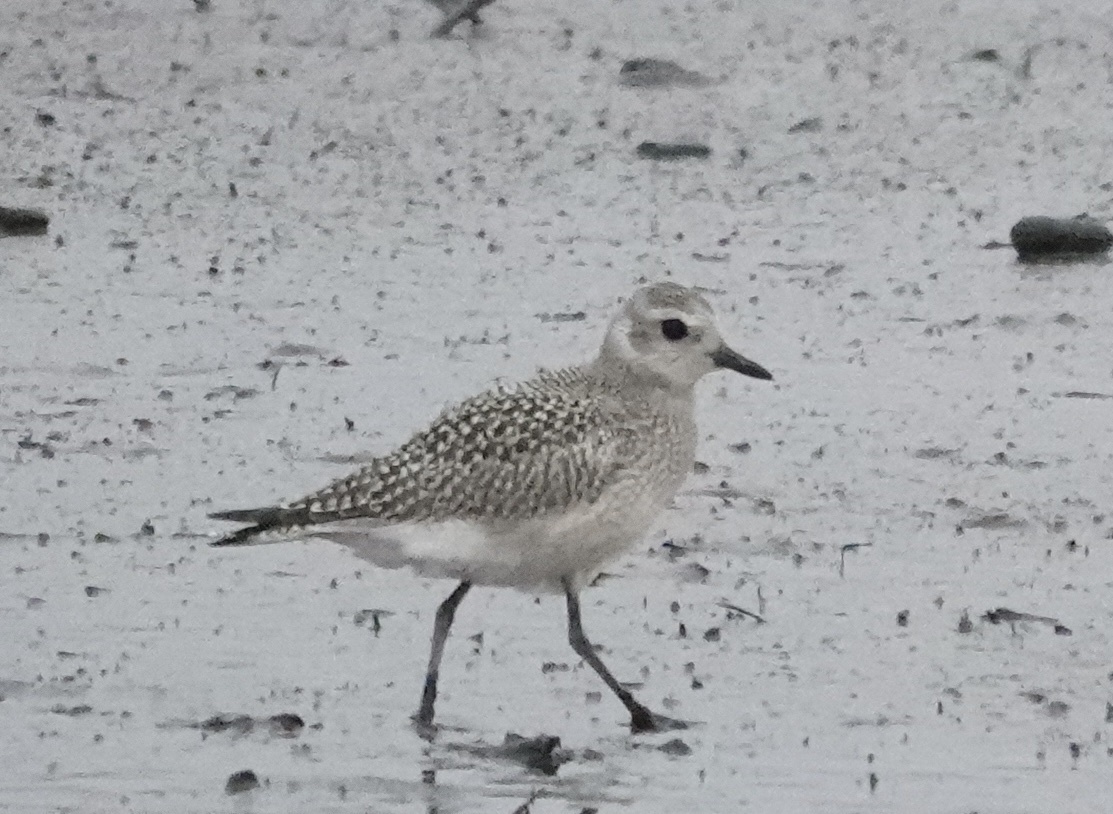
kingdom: Animalia
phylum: Chordata
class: Aves
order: Charadriiformes
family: Charadriidae
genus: Pluvialis
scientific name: Pluvialis squatarola
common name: Grey plover
